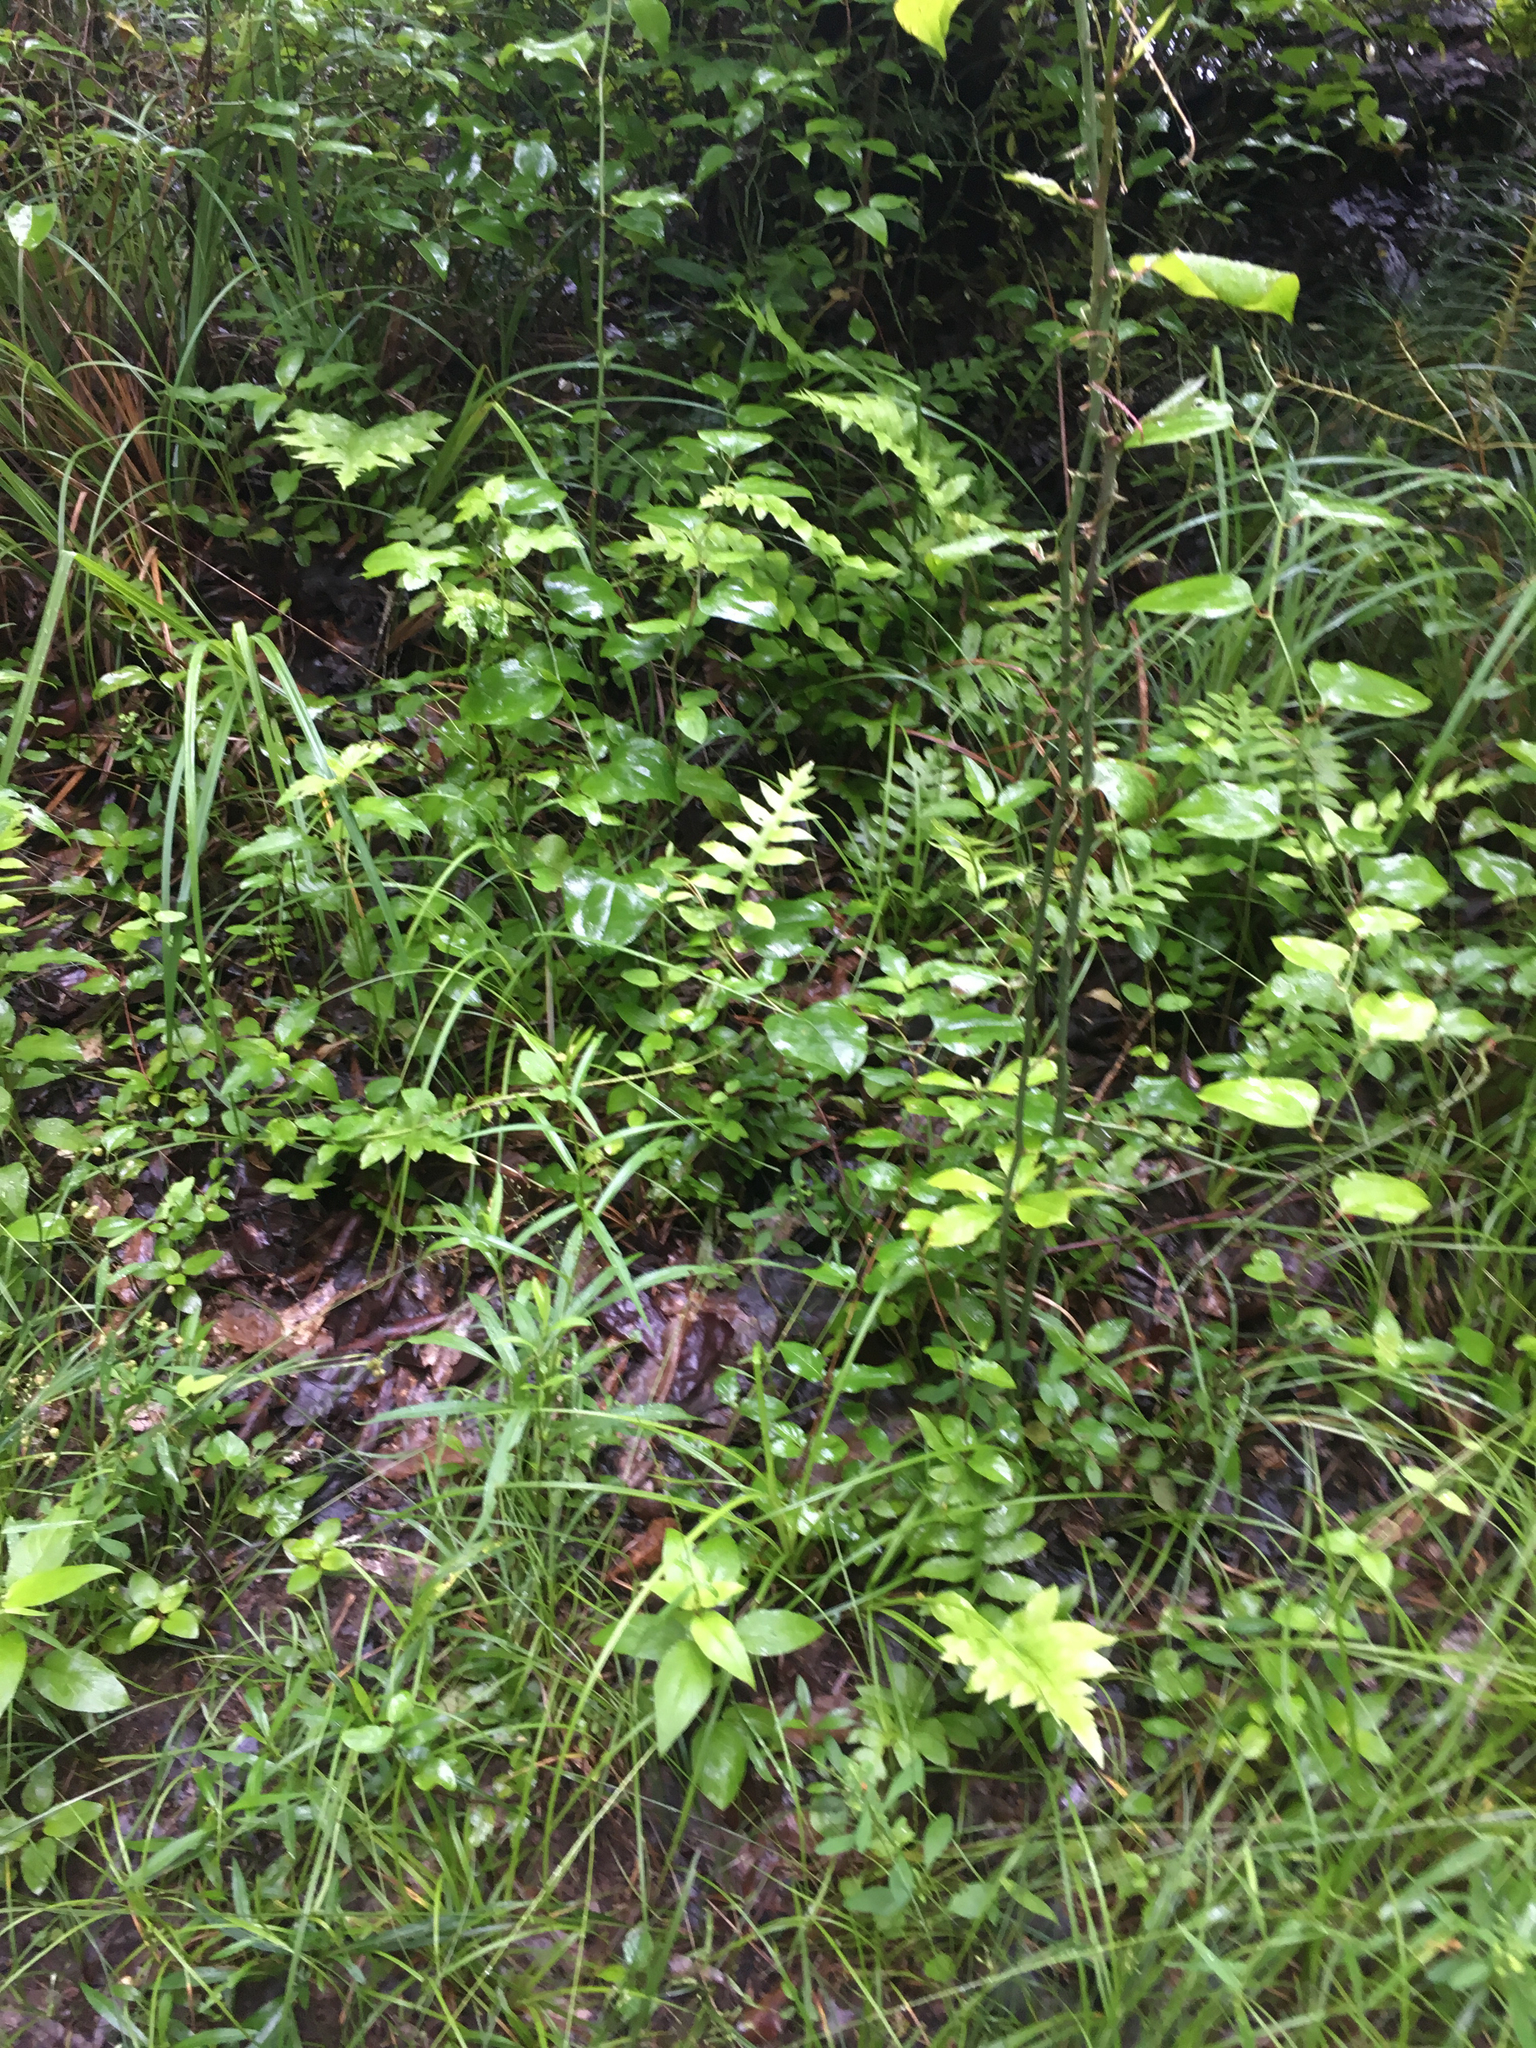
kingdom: Plantae
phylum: Tracheophyta
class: Polypodiopsida
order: Polypodiales
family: Blechnaceae
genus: Lorinseria
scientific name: Lorinseria areolata
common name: Dwarf chain fern
